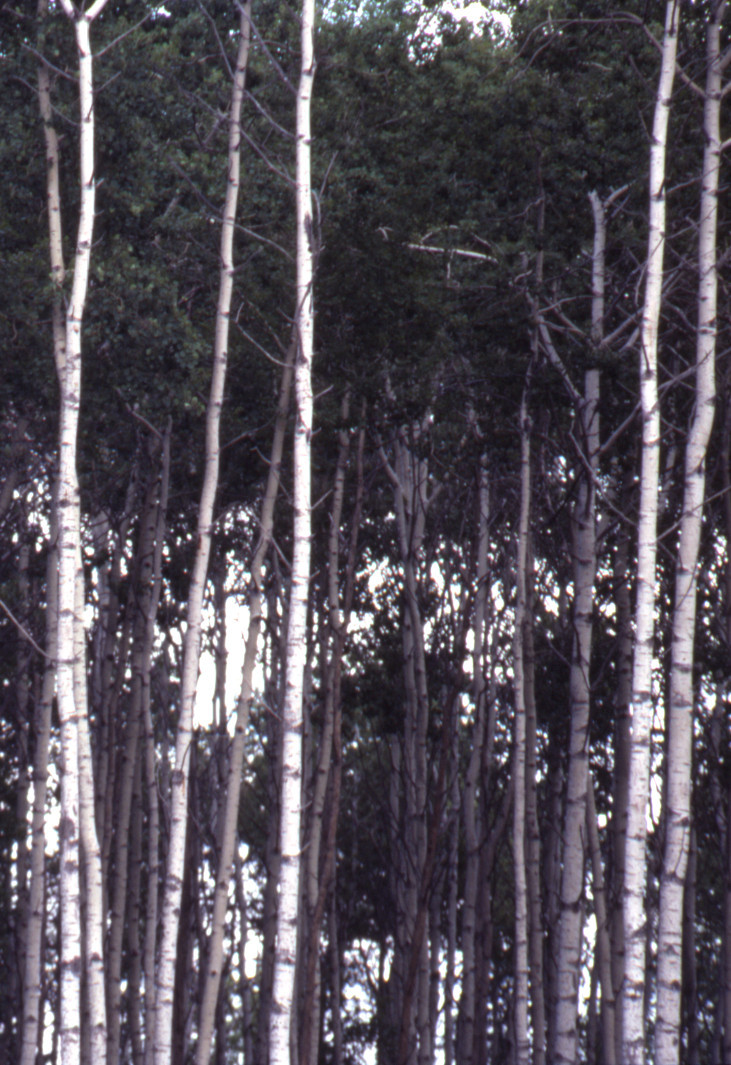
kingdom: Plantae
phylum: Tracheophyta
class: Magnoliopsida
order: Malpighiales
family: Salicaceae
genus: Populus
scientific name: Populus tremuloides
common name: Quaking aspen
